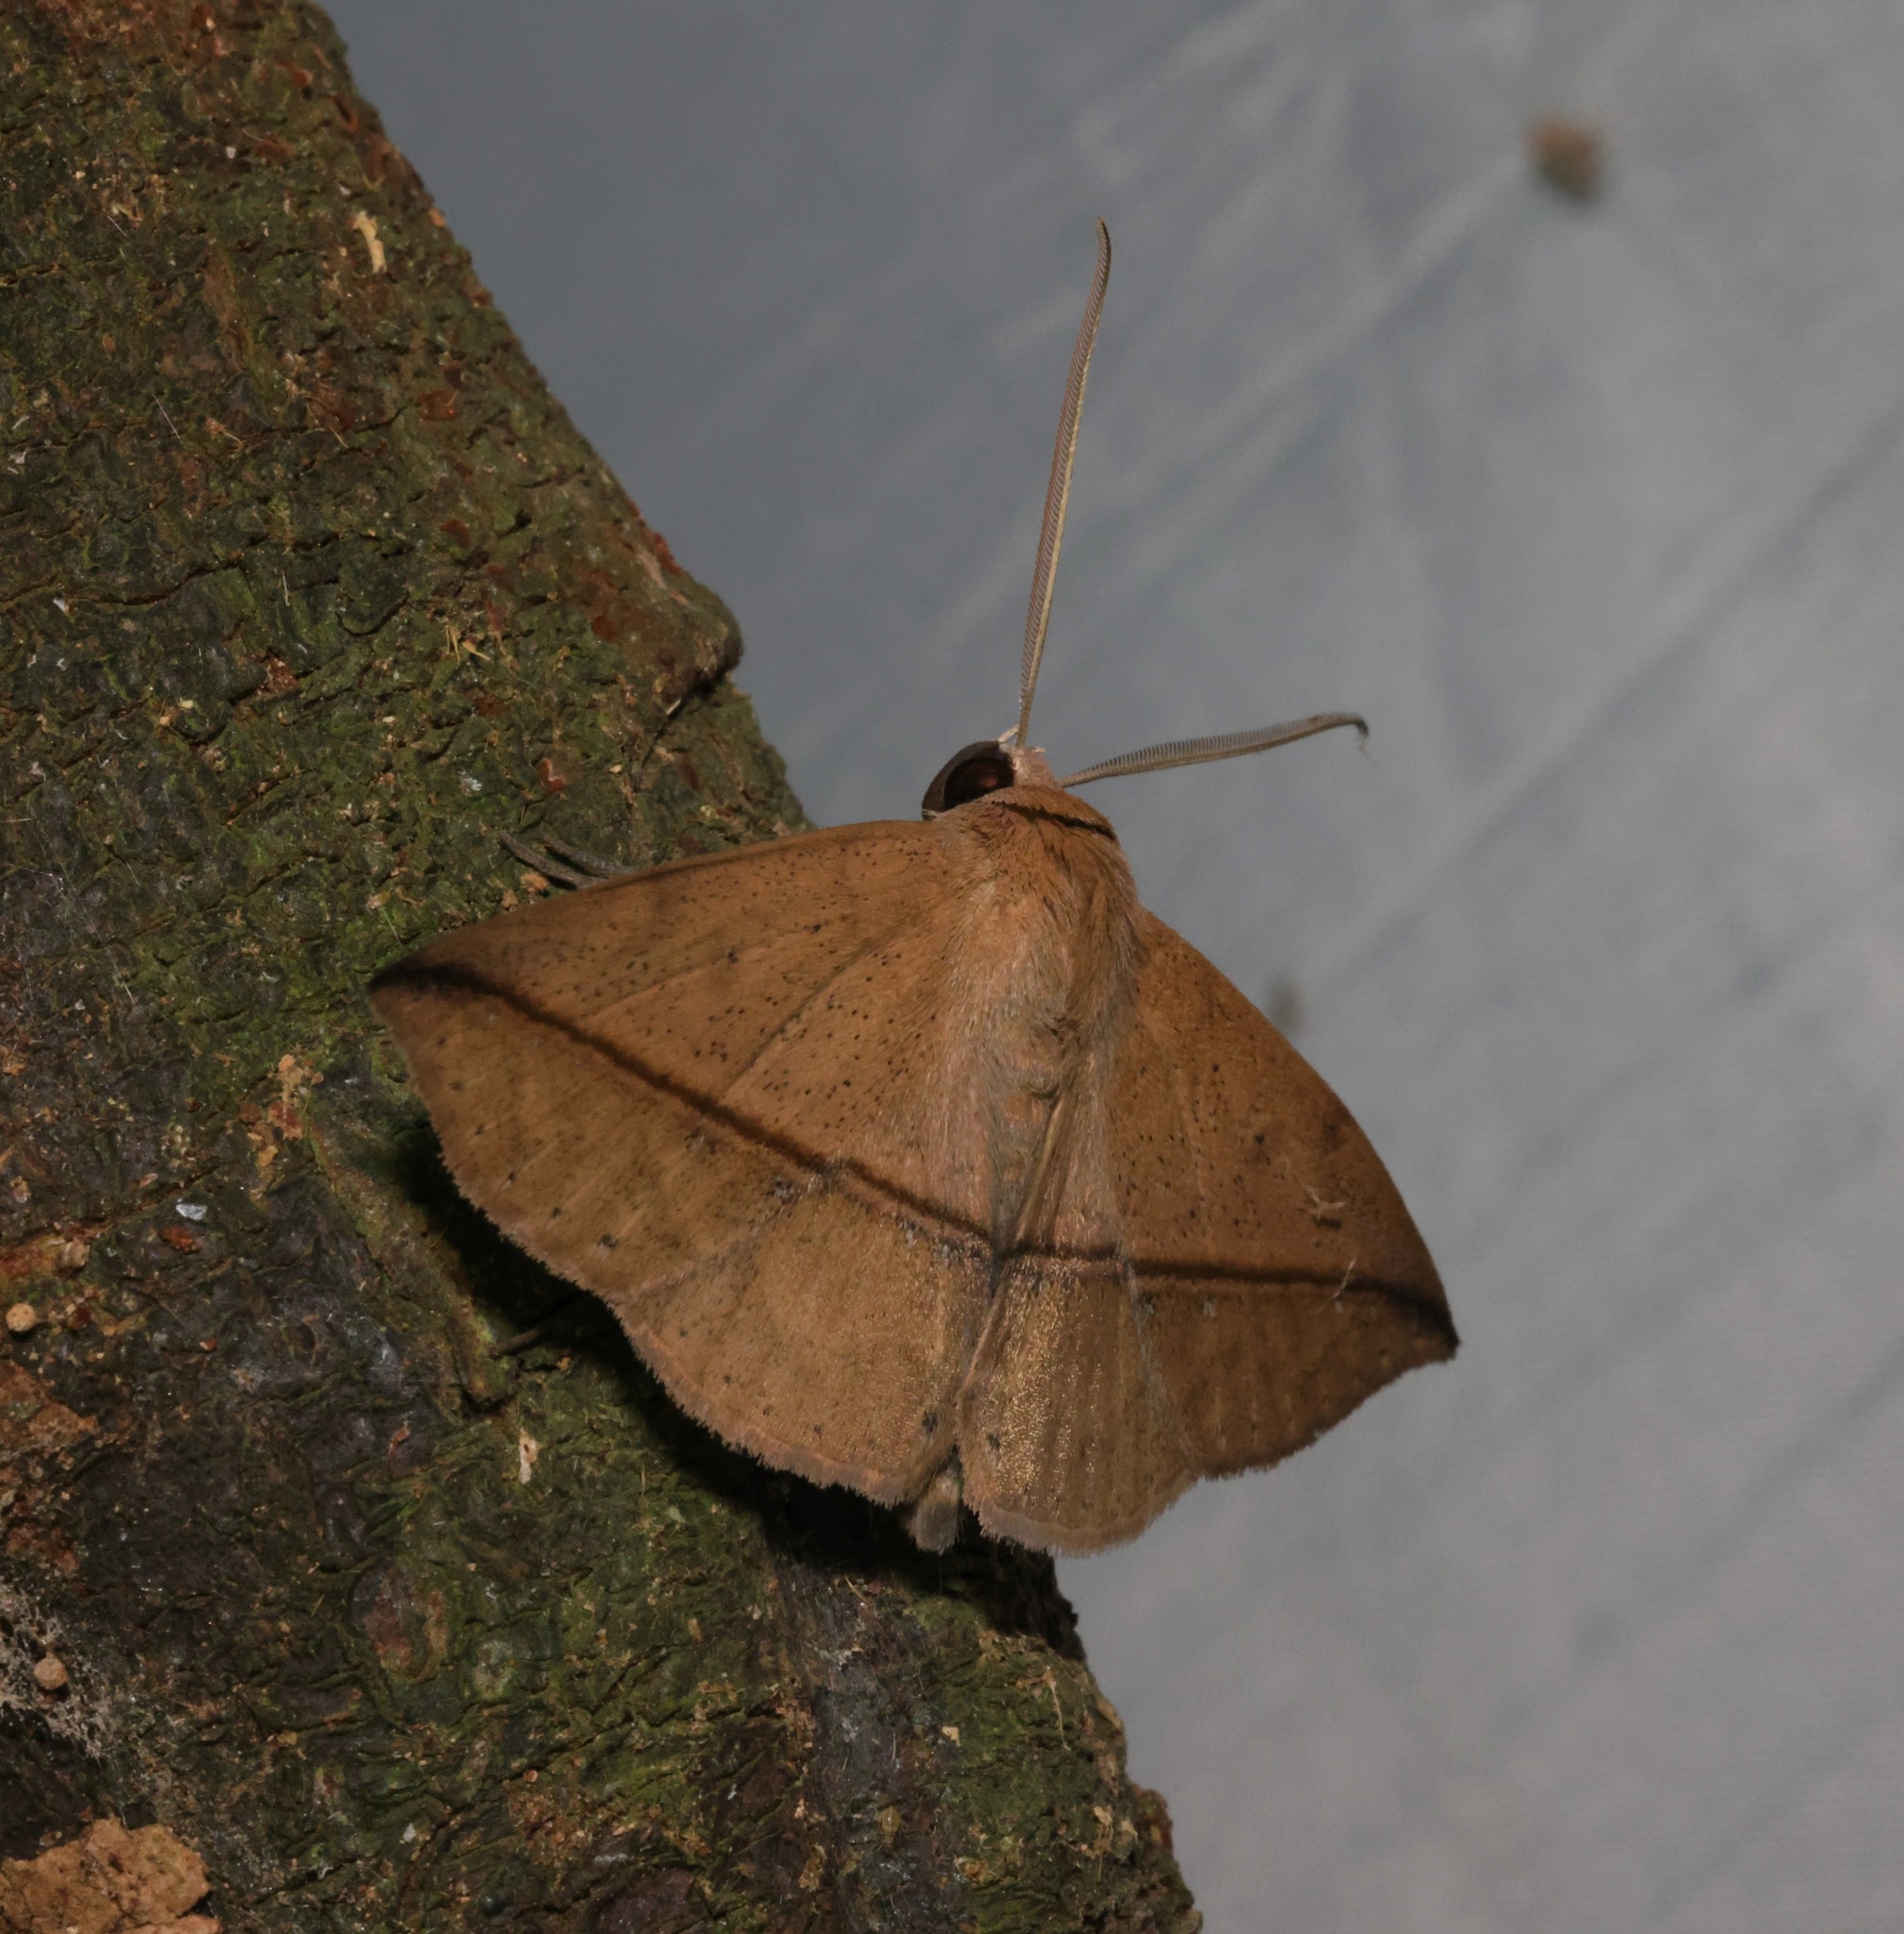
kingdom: Animalia
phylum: Arthropoda
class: Insecta
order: Lepidoptera
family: Erebidae
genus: Ugia
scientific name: Ugia purpurea
